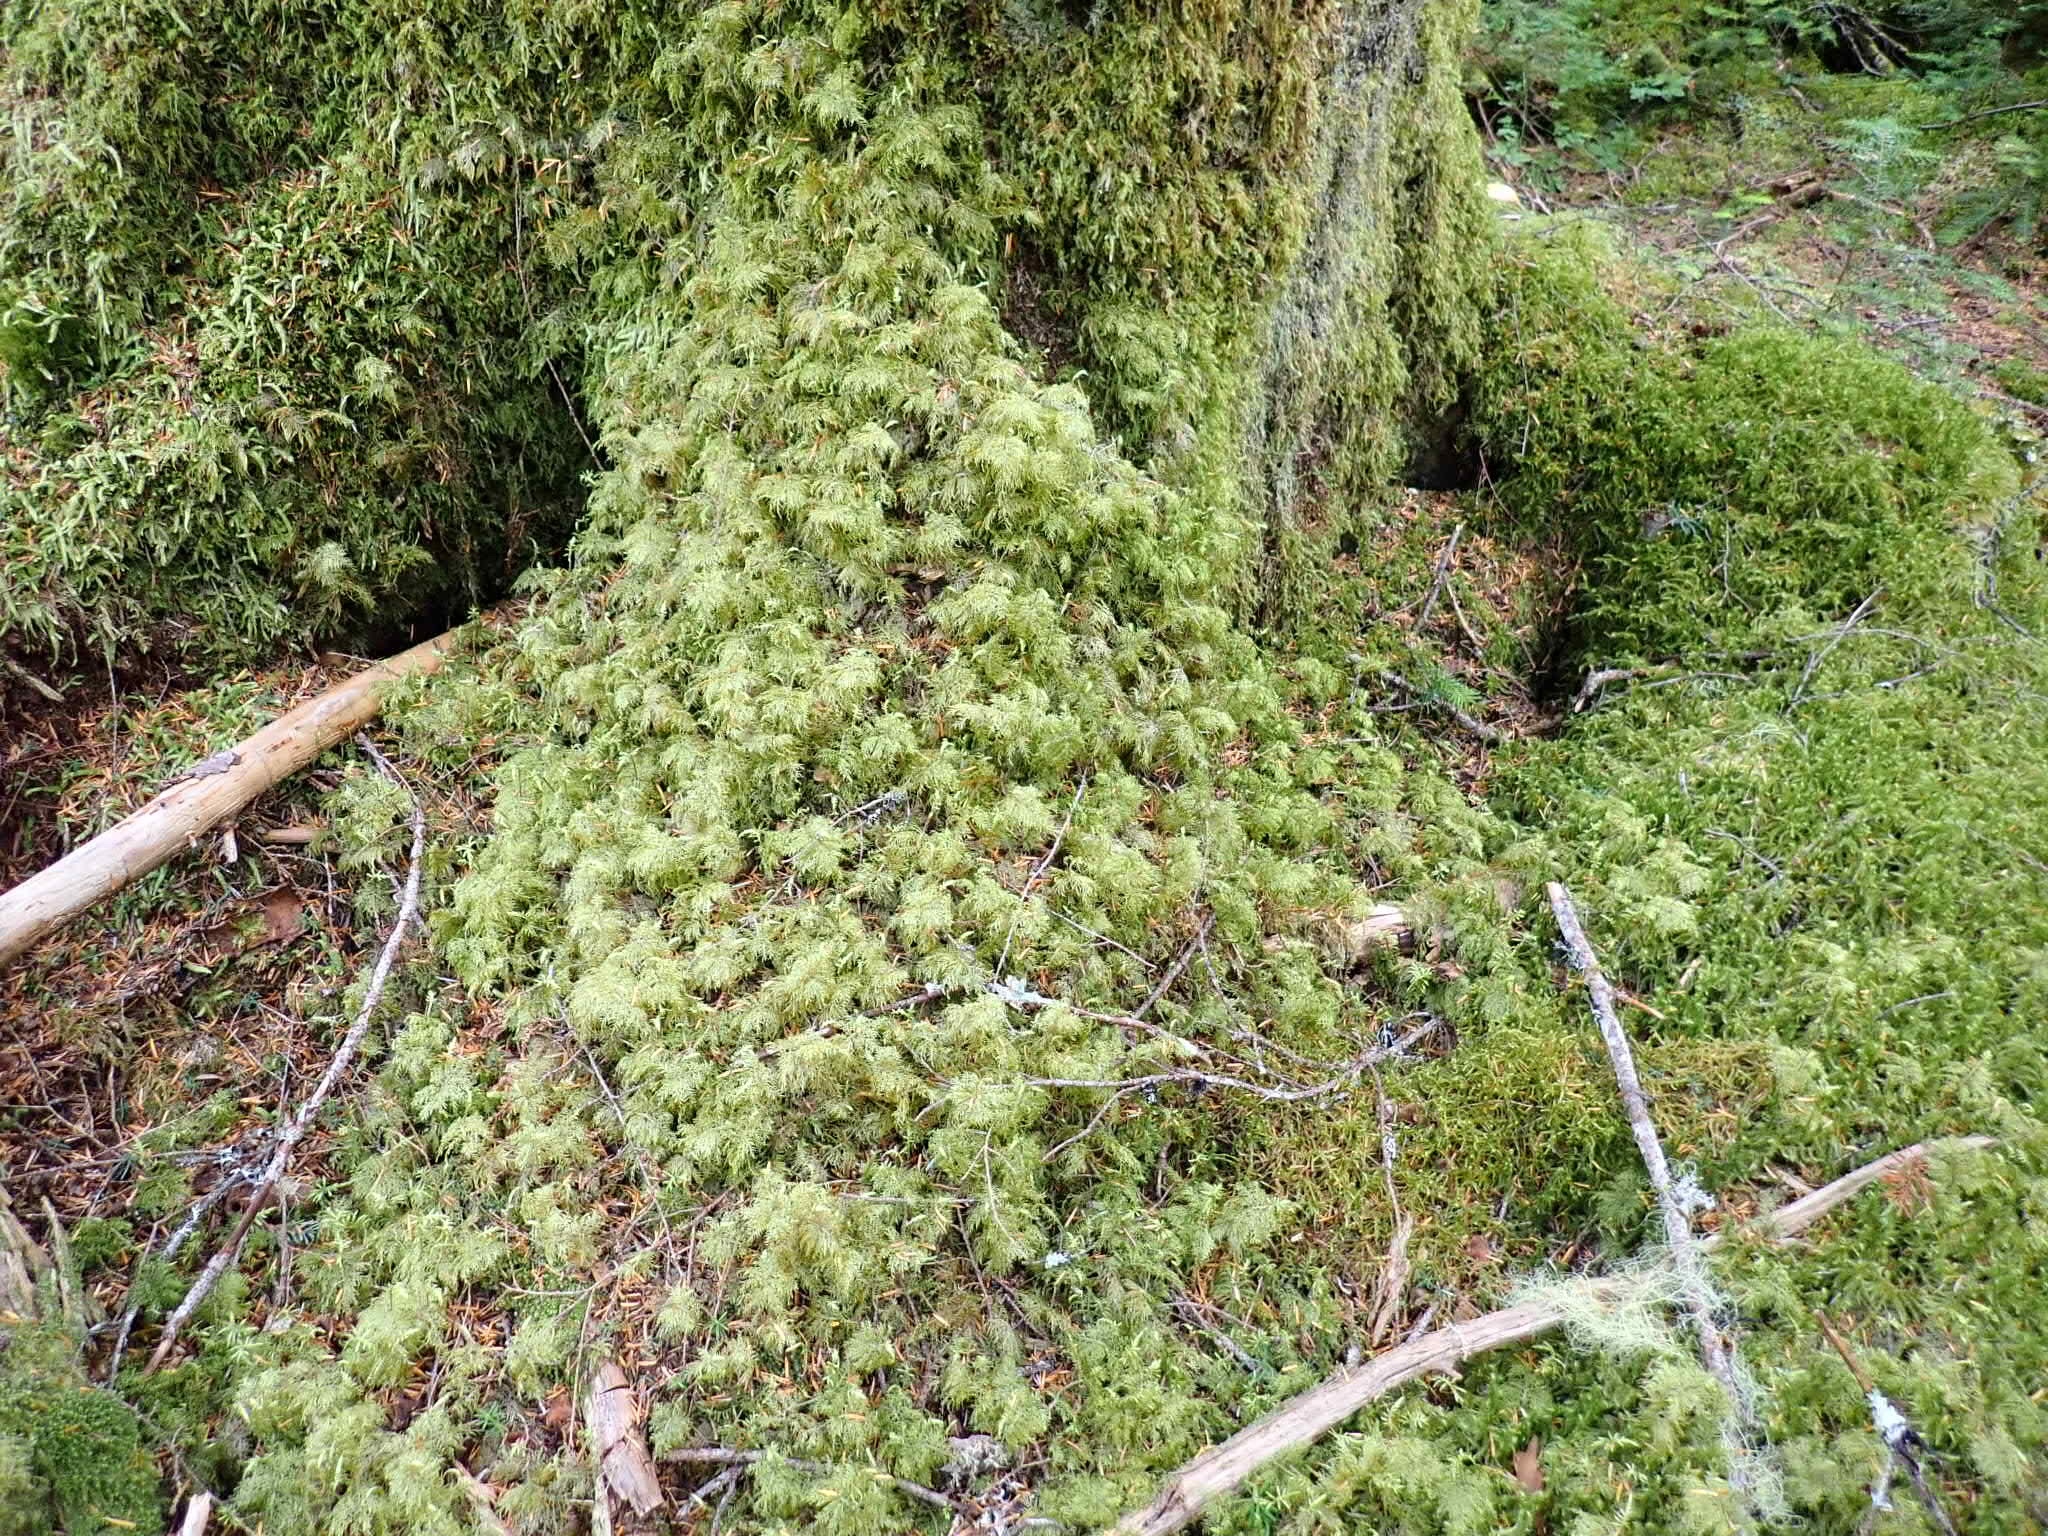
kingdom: Plantae
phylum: Bryophyta
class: Bryopsida
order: Hypnales
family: Hylocomiaceae
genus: Hylocomium
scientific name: Hylocomium splendens
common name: Stairstep moss
